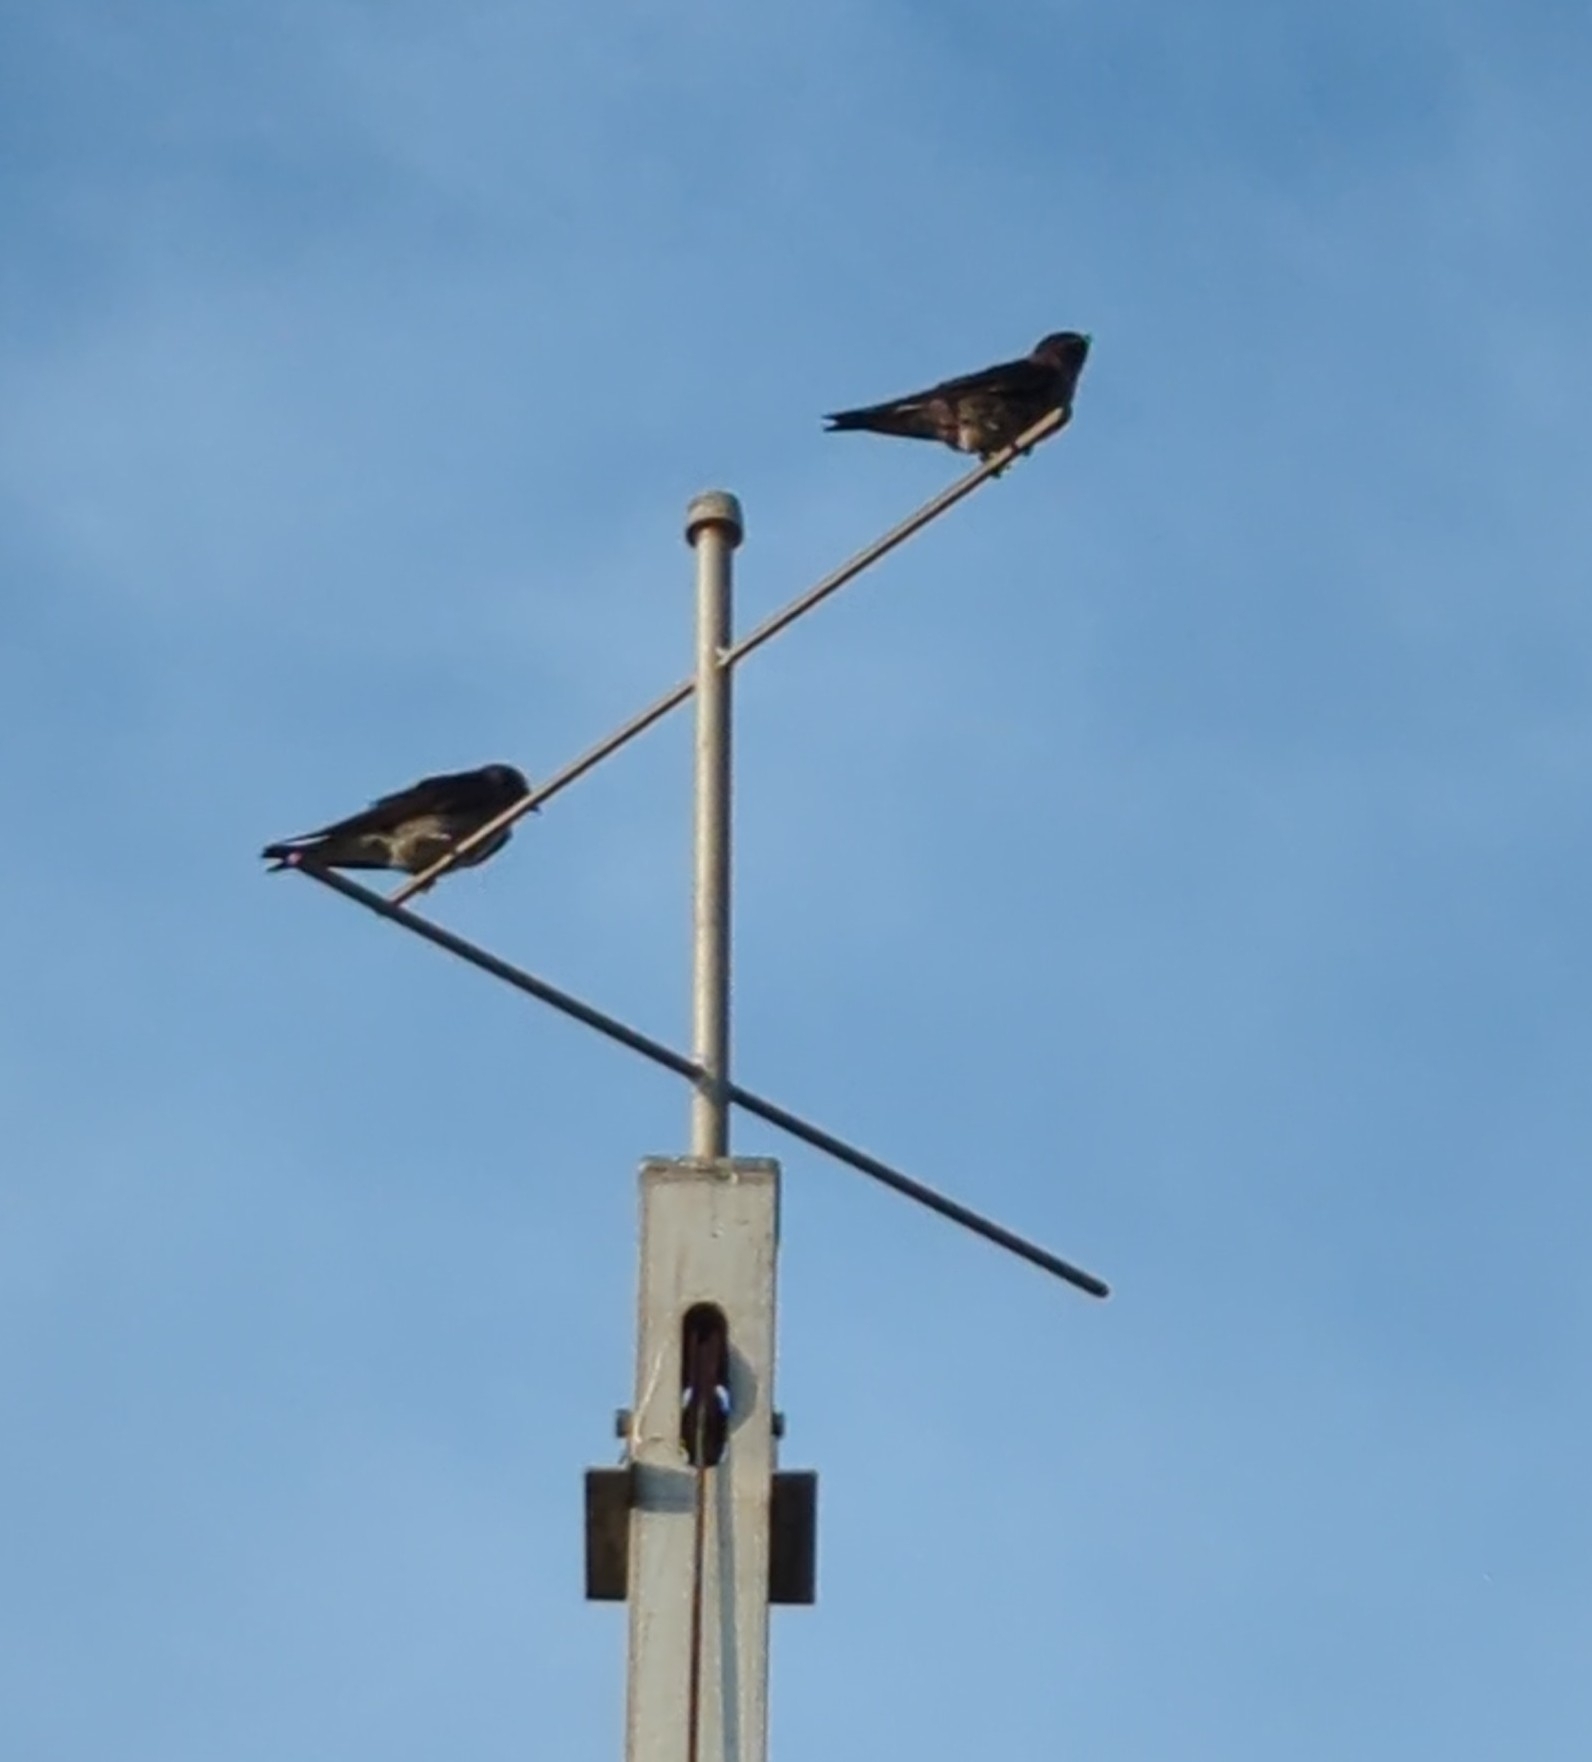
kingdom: Animalia
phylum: Chordata
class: Aves
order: Passeriformes
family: Hirundinidae
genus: Progne
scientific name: Progne subis
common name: Purple martin
